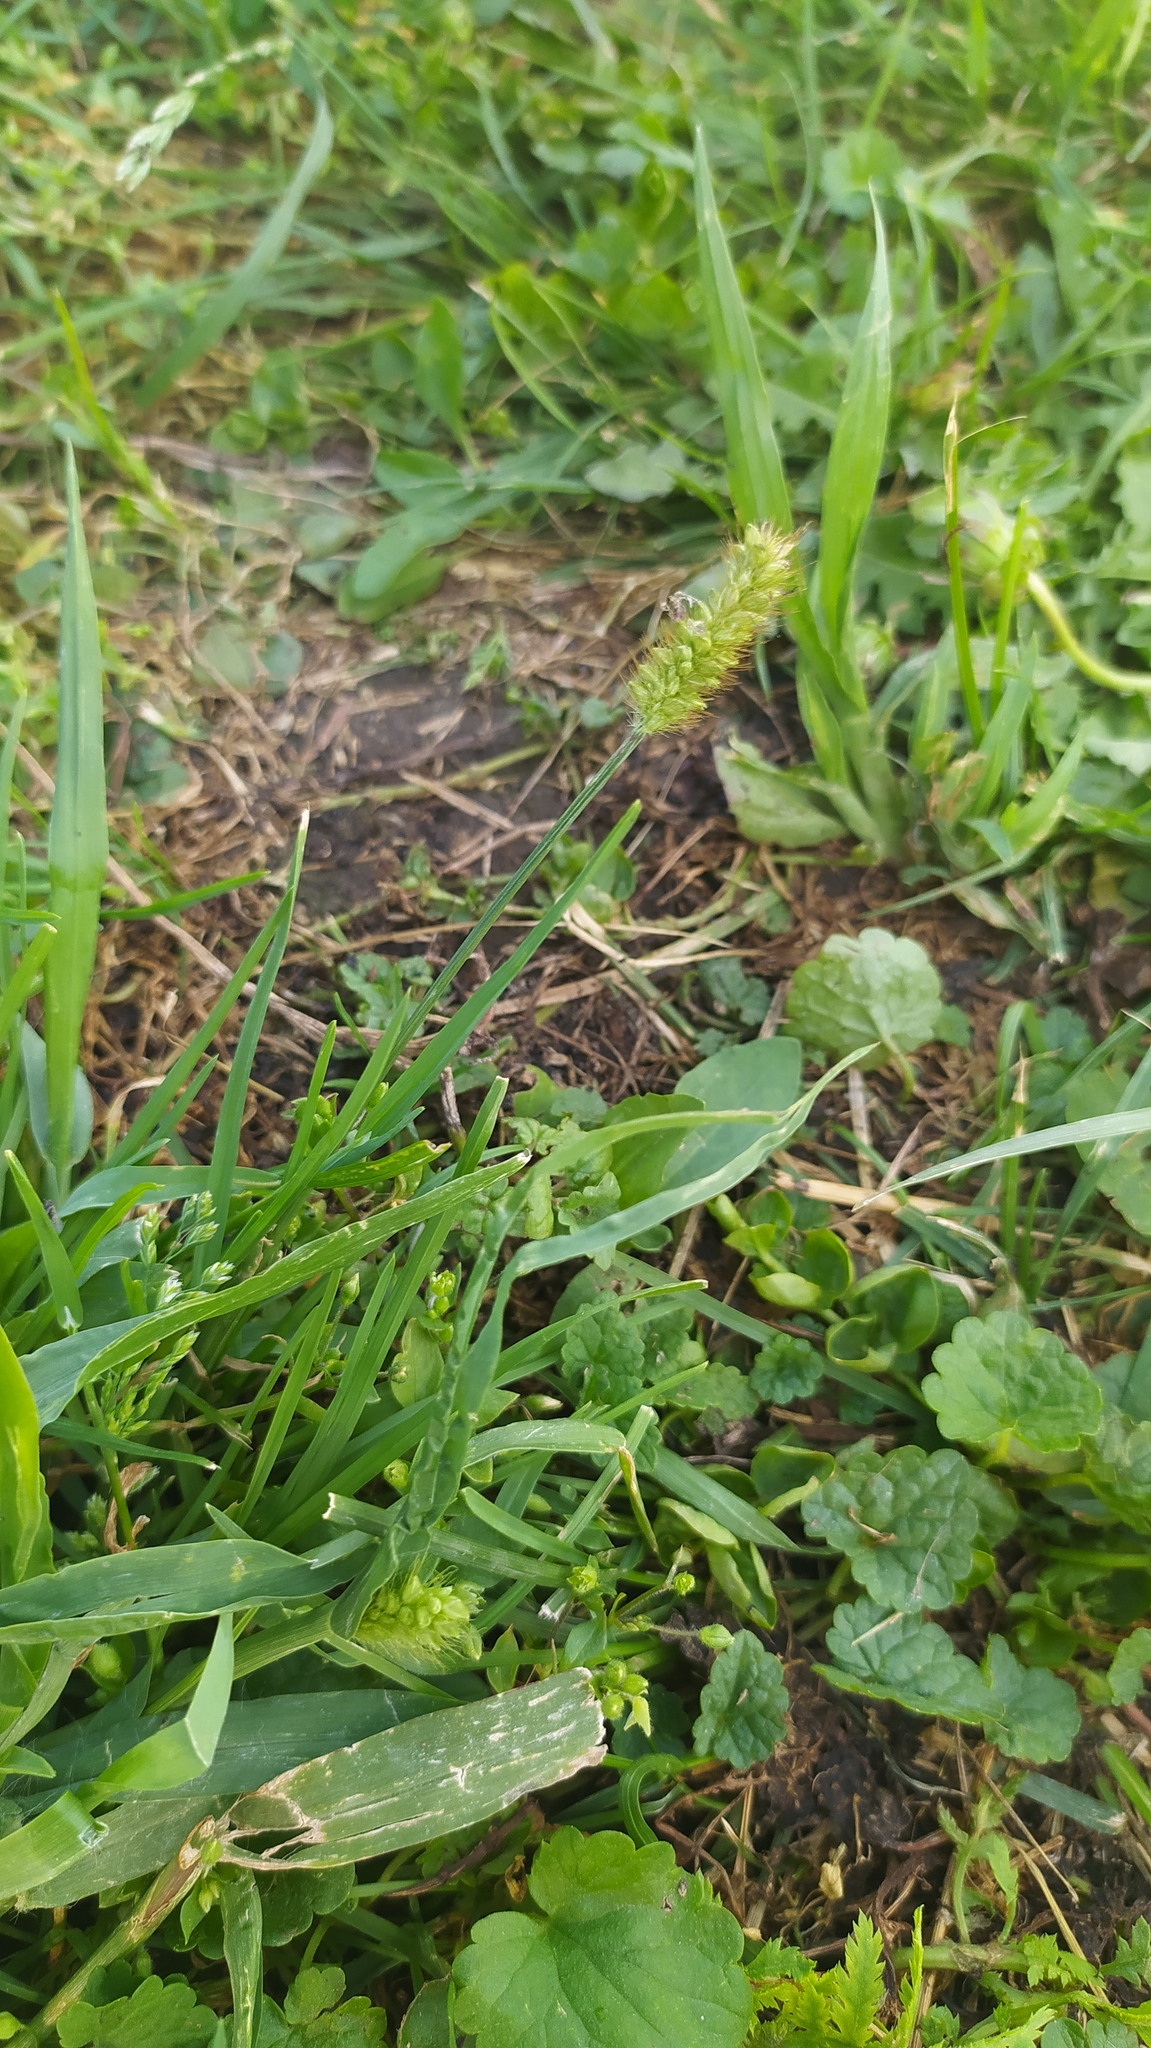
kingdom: Plantae
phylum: Tracheophyta
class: Liliopsida
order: Poales
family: Poaceae
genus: Setaria
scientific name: Setaria pumila
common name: Yellow bristle-grass
